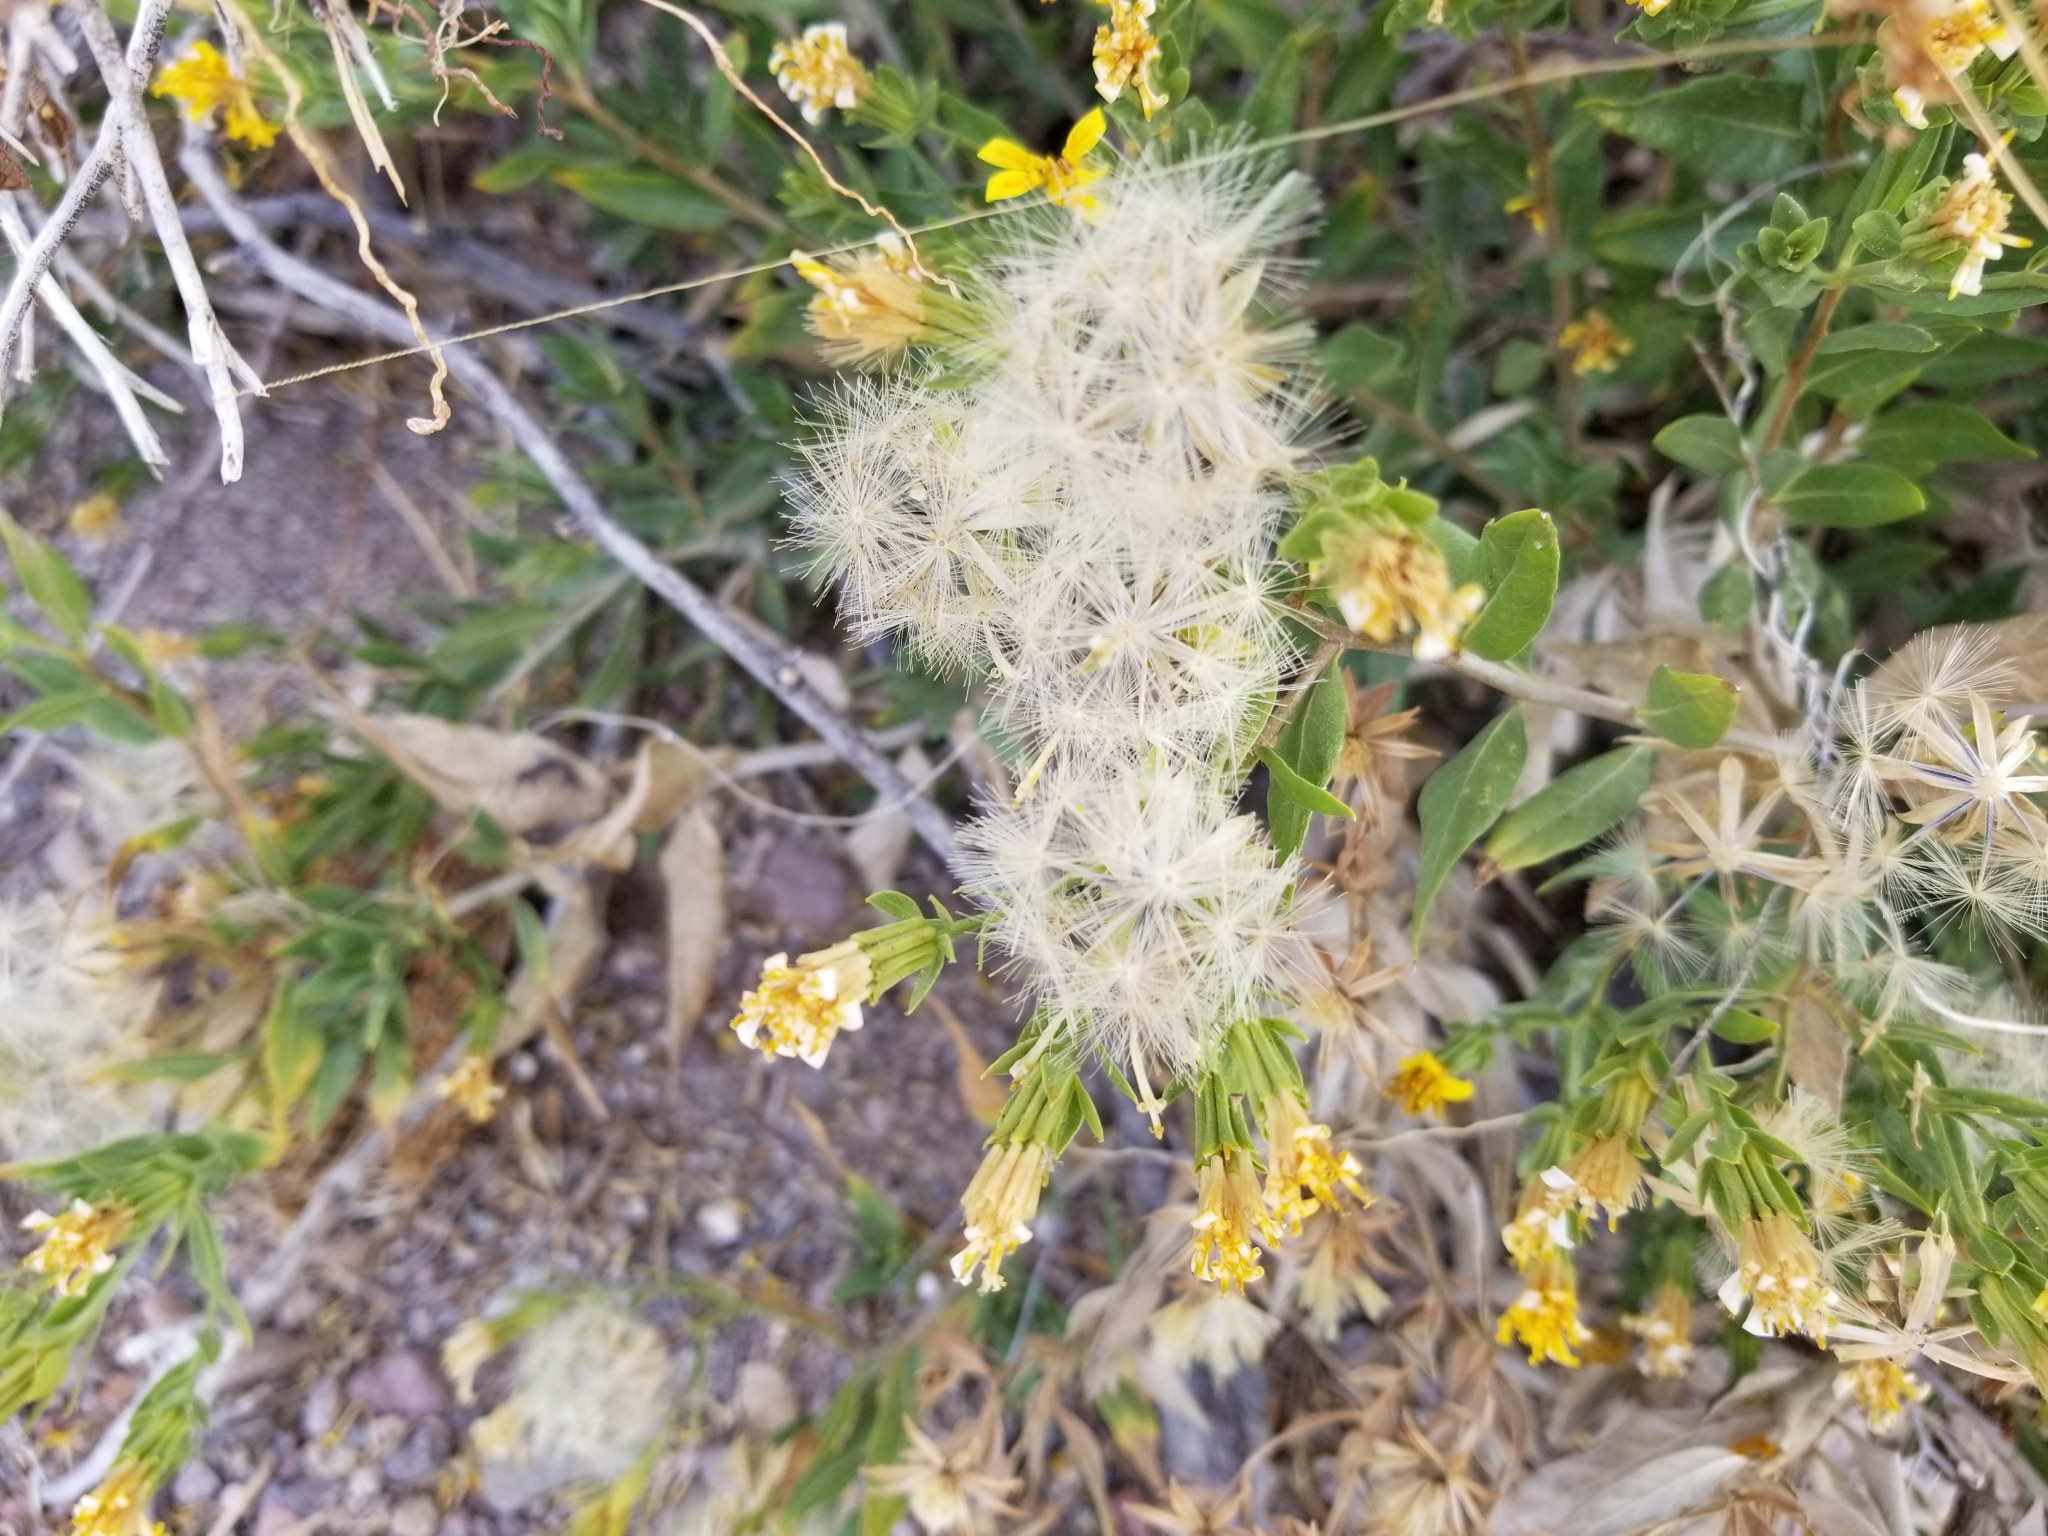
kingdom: Plantae
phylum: Tracheophyta
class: Magnoliopsida
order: Asterales
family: Asteraceae
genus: Trixis
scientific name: Trixis californica
